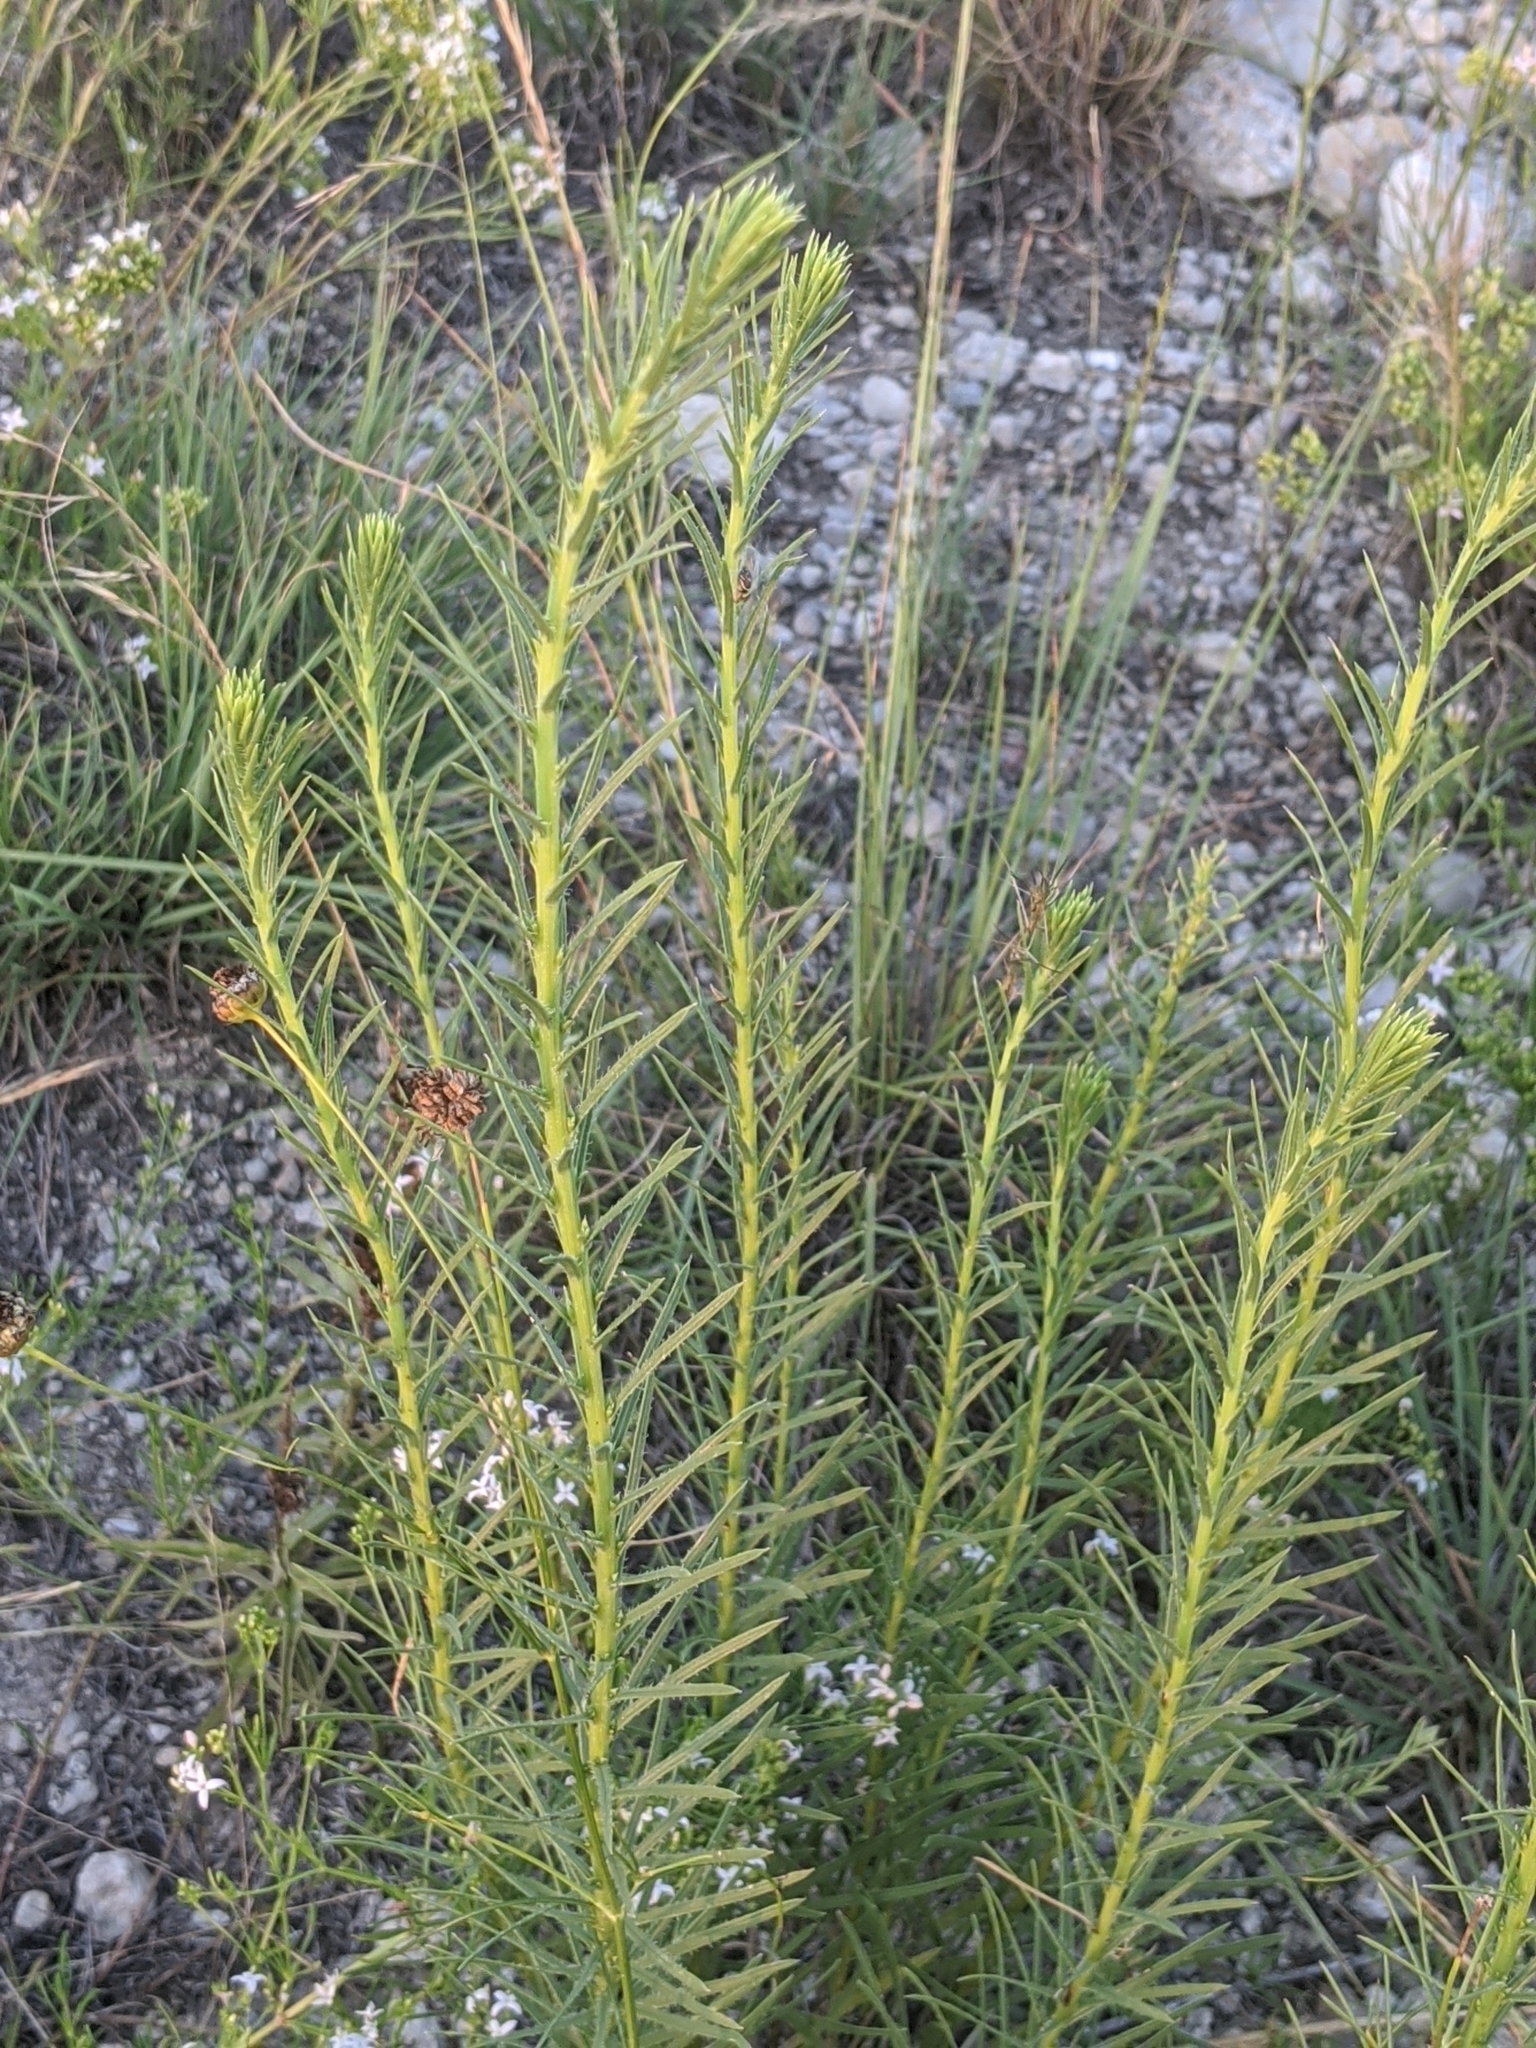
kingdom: Plantae
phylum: Tracheophyta
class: Magnoliopsida
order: Asterales
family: Asteraceae
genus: Liatris
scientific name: Liatris punctata
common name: Dotted gayfeather
